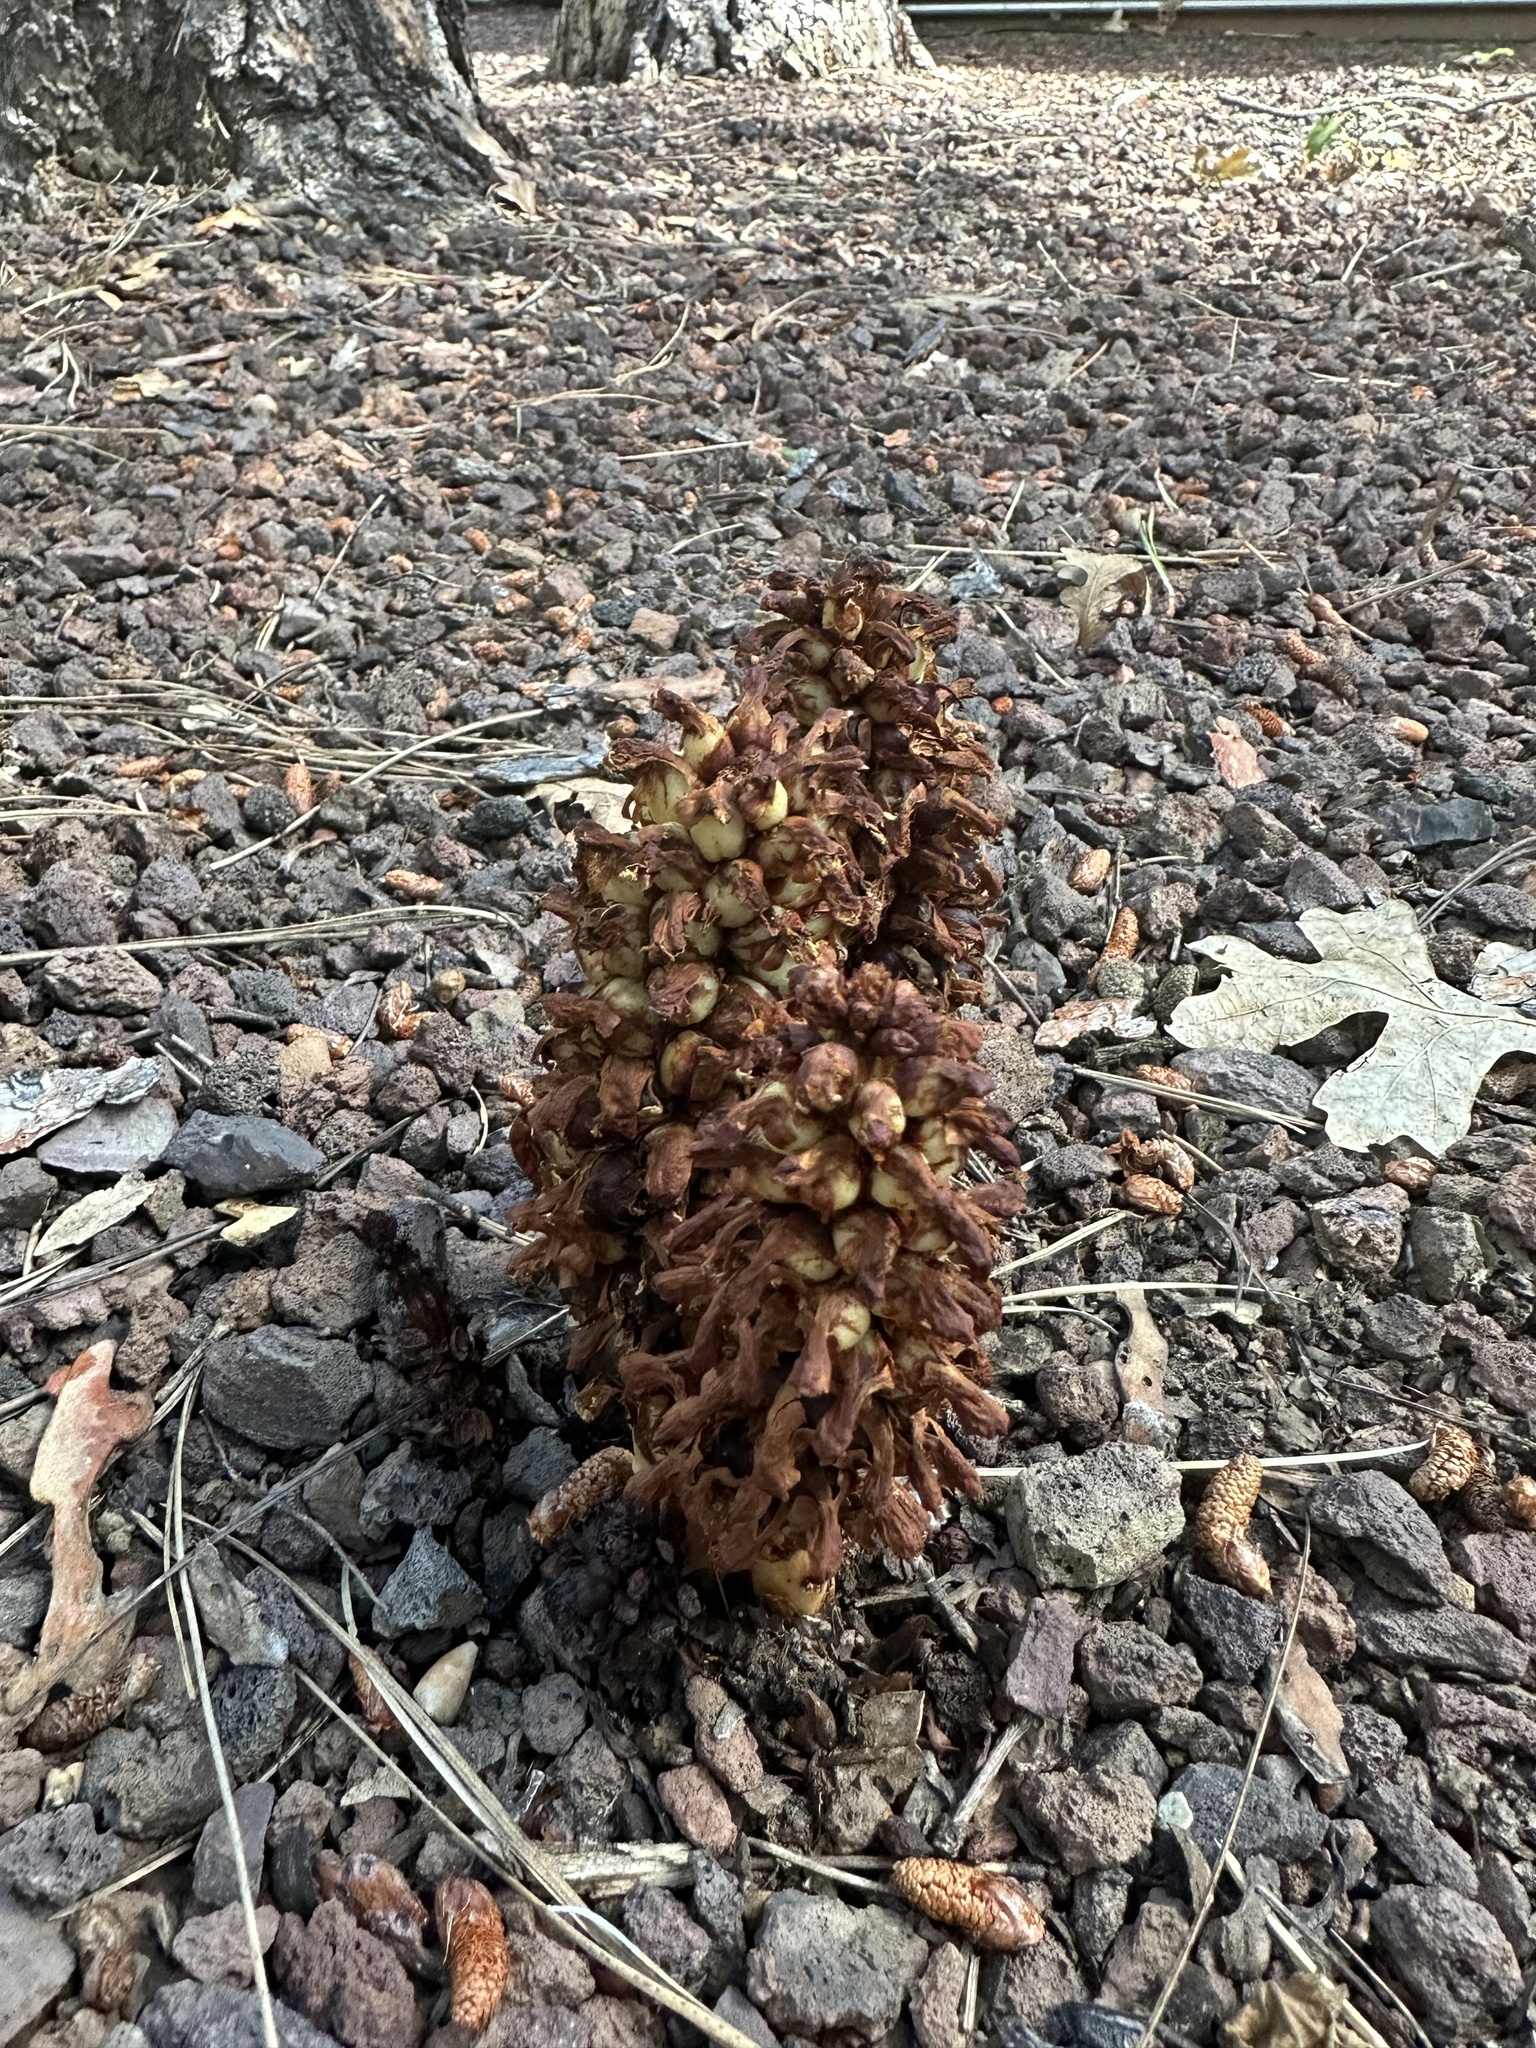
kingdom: Plantae
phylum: Tracheophyta
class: Magnoliopsida
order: Lamiales
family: Orobanchaceae
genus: Conopholis
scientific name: Conopholis alpina
